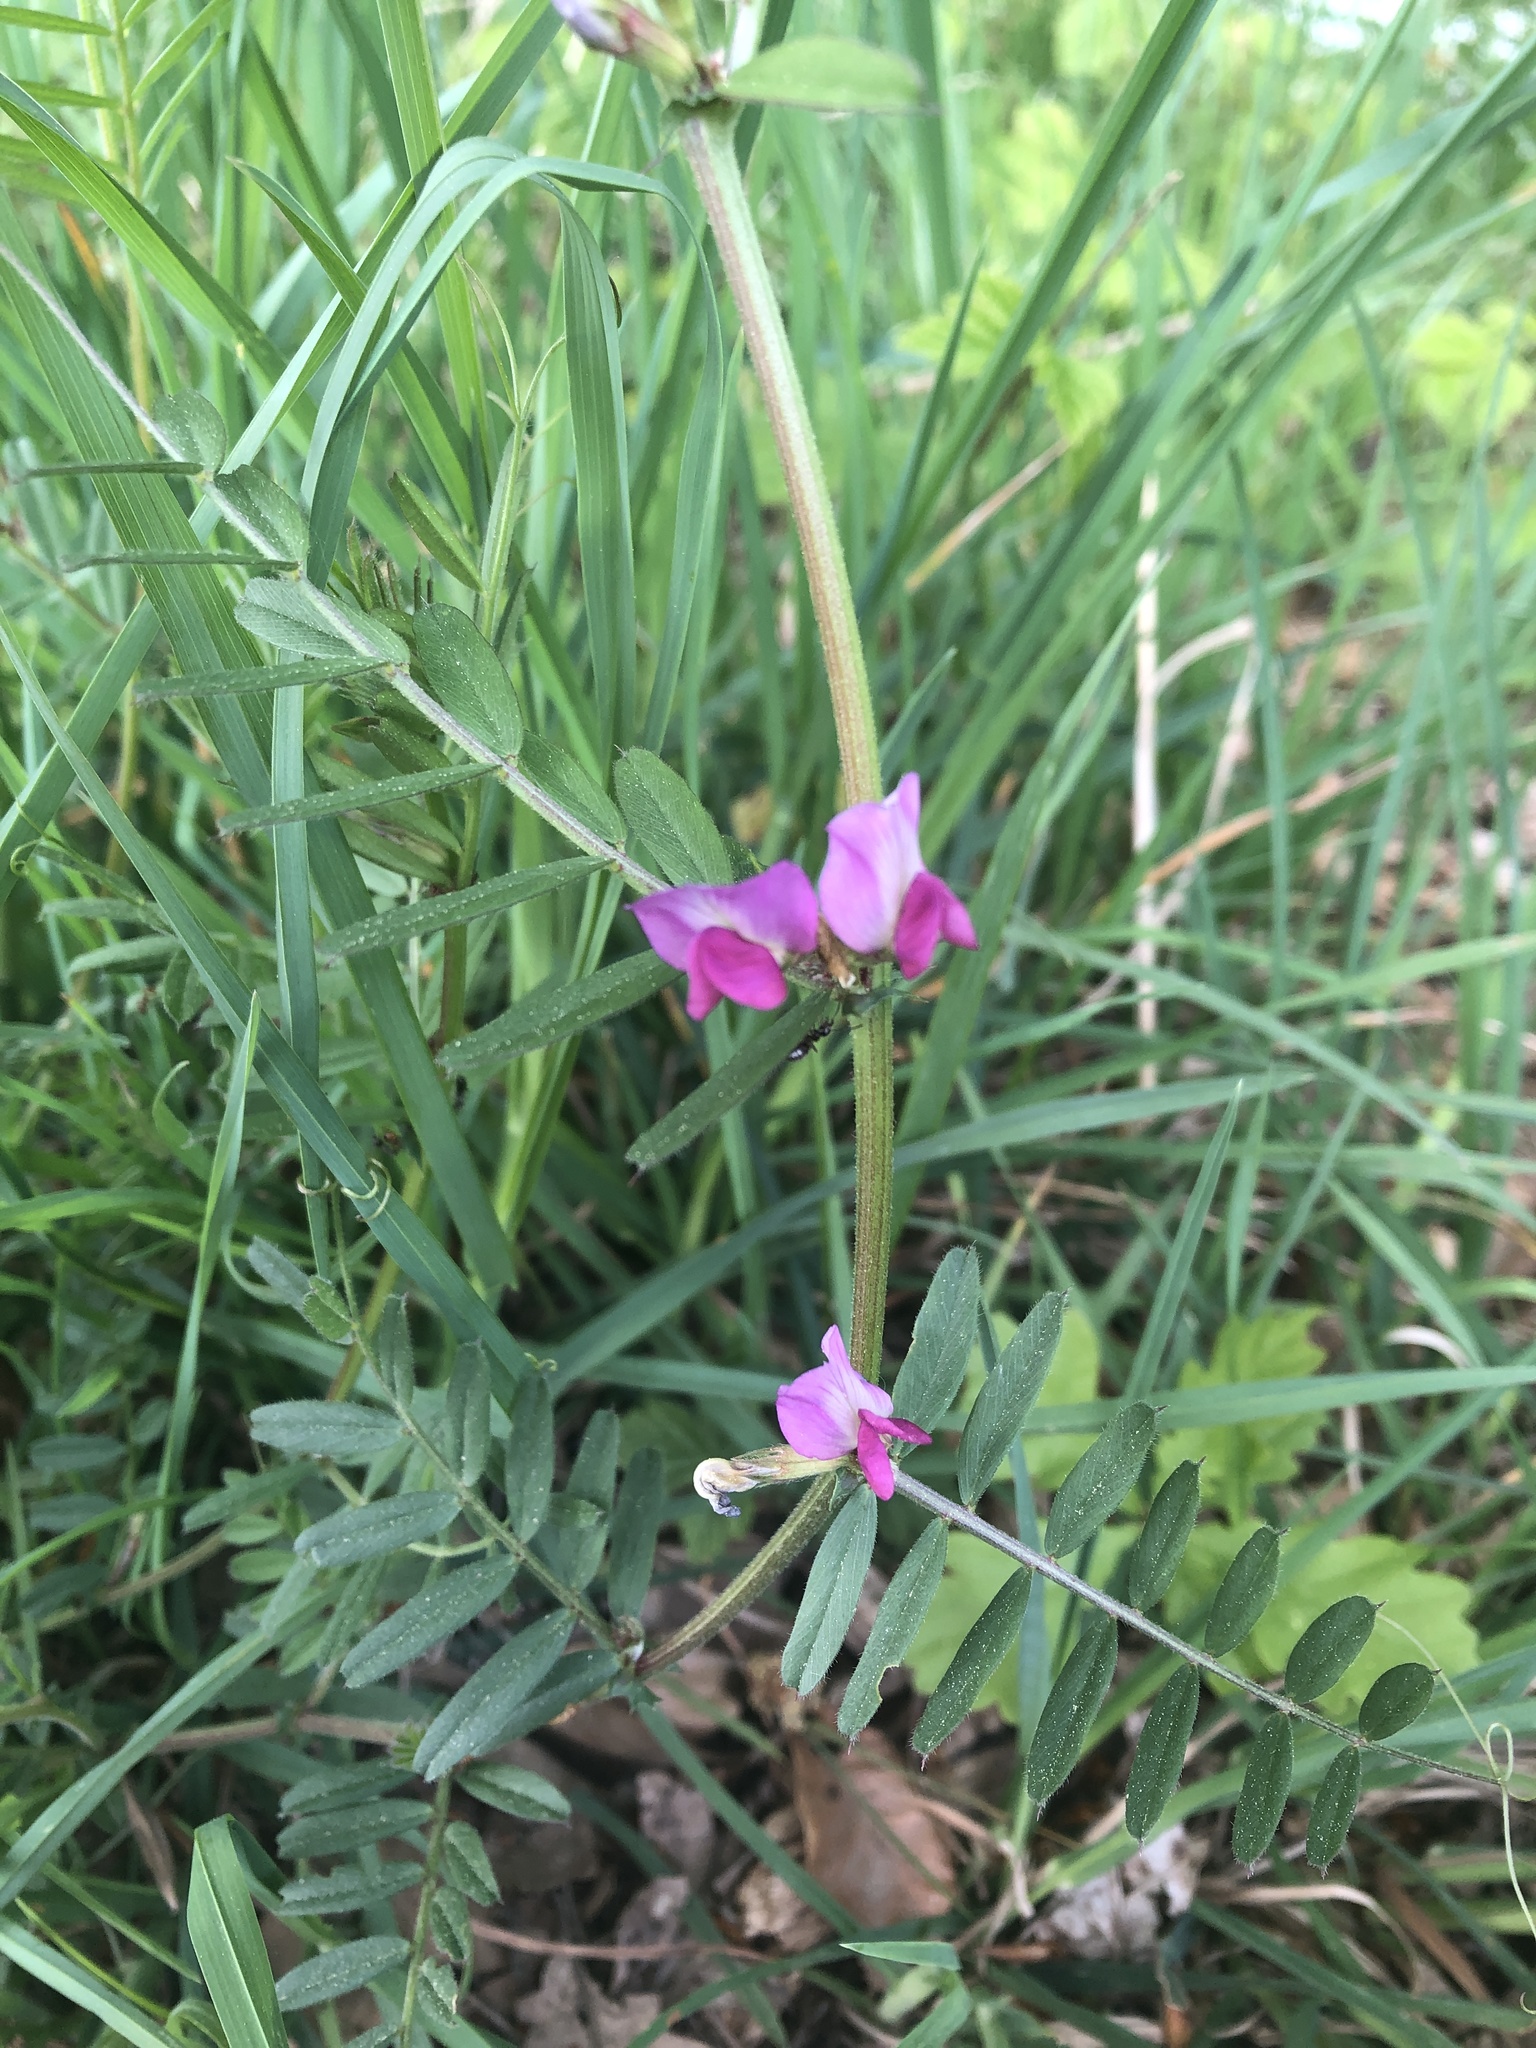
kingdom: Plantae
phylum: Tracheophyta
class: Magnoliopsida
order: Fabales
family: Fabaceae
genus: Vicia
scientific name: Vicia sativa
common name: Garden vetch
